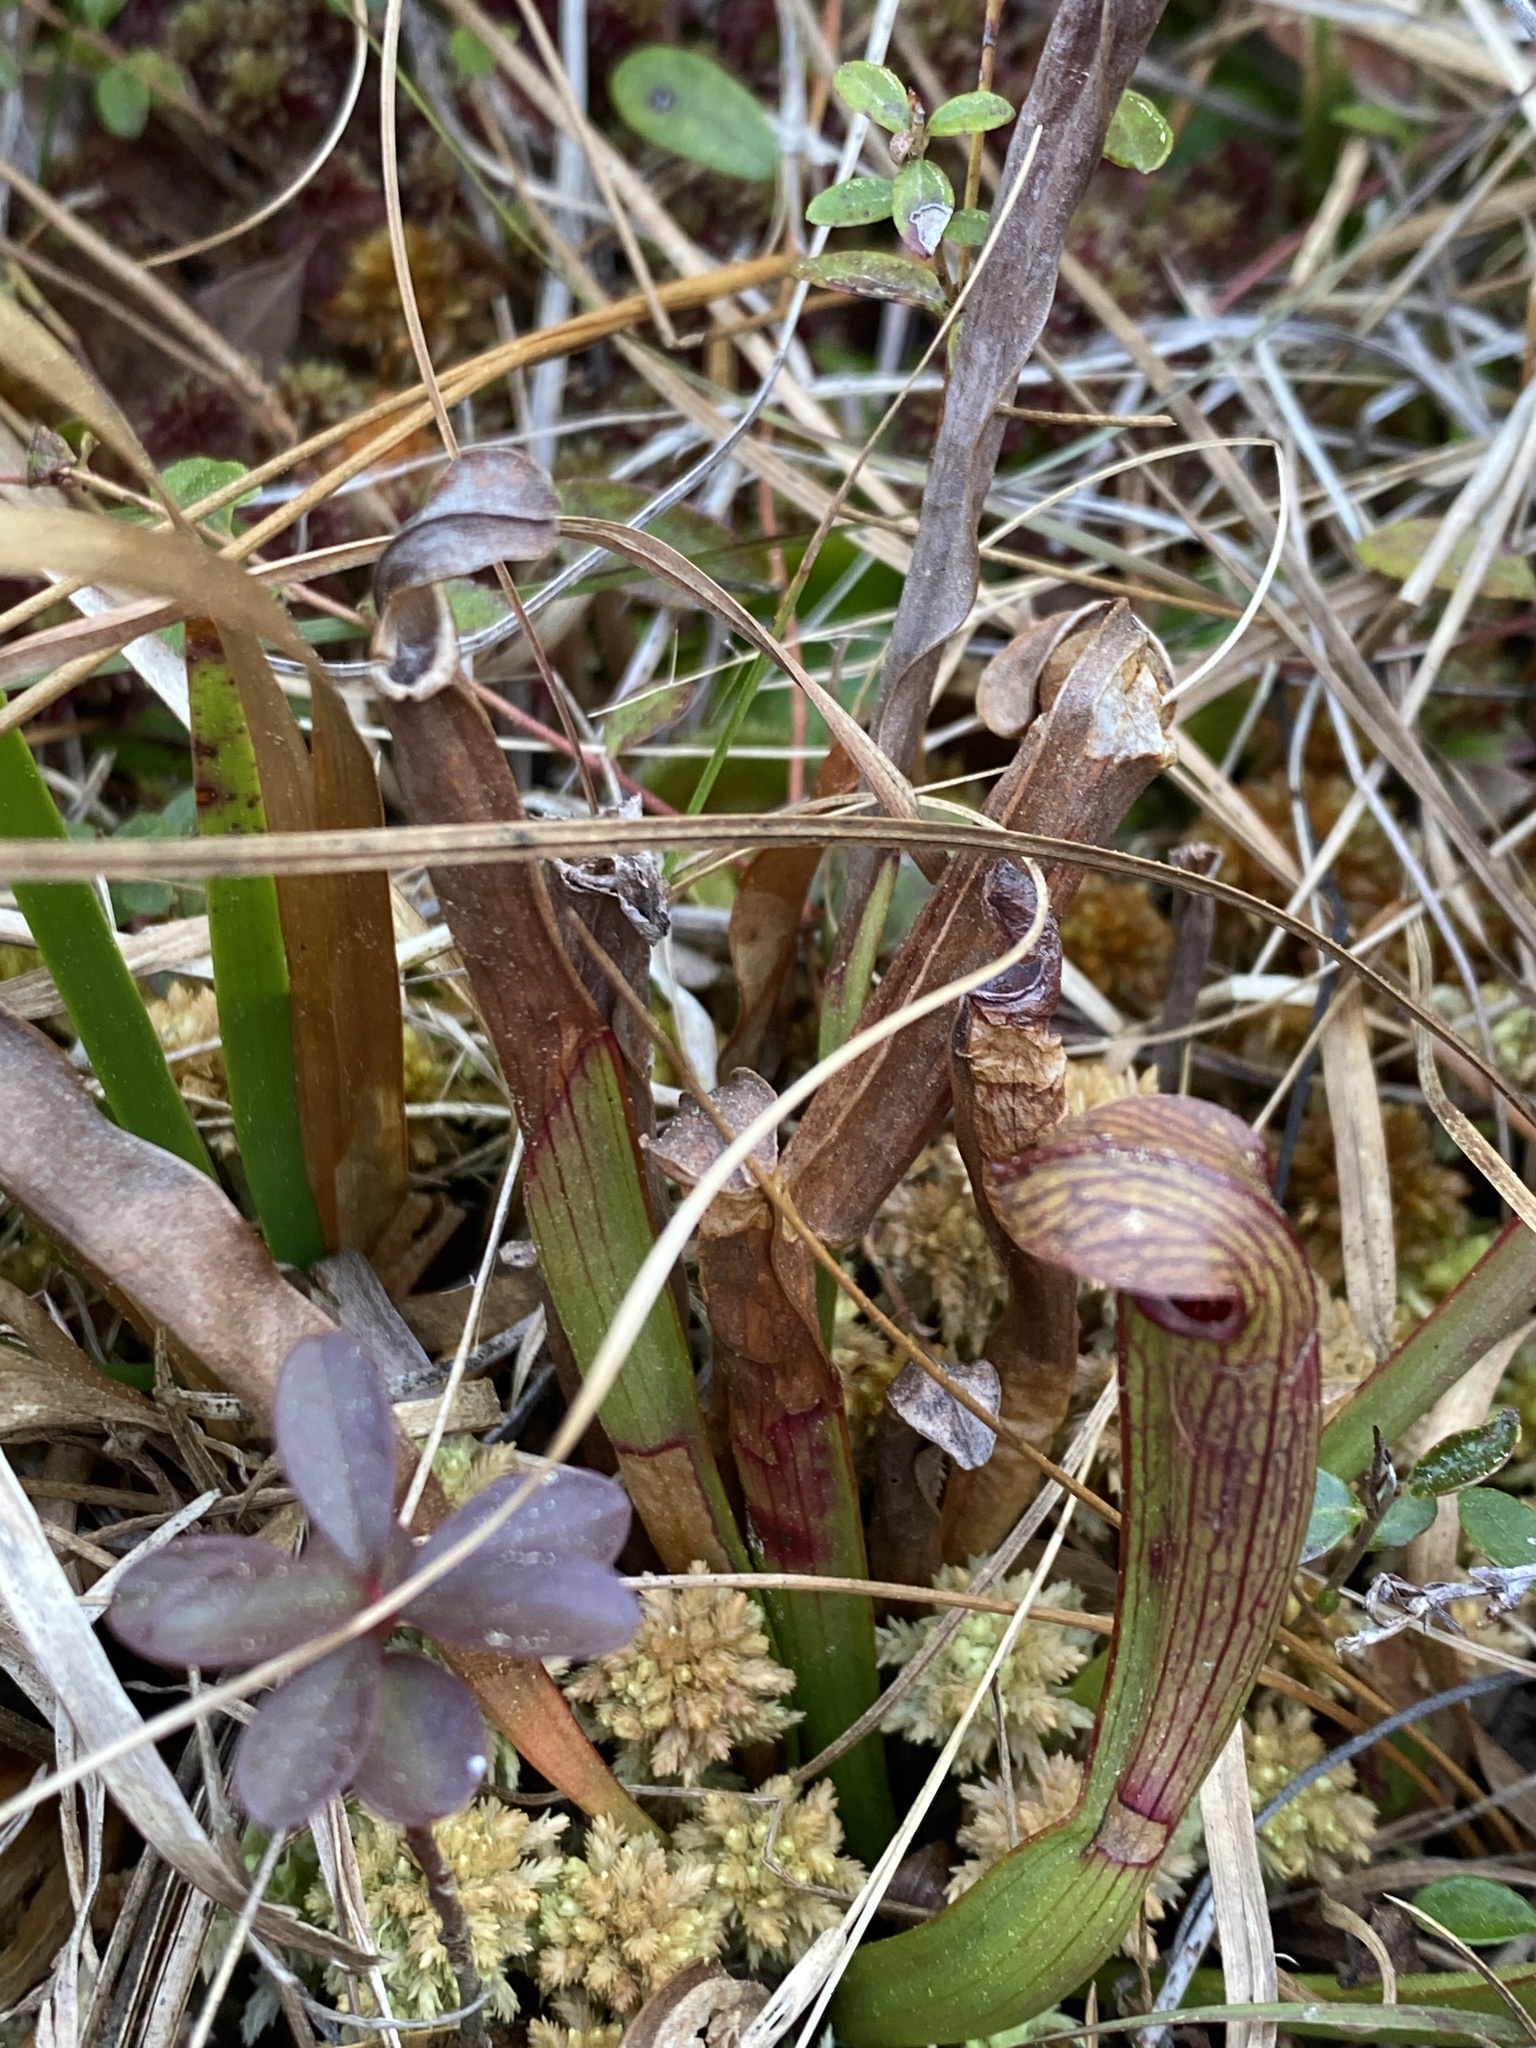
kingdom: Plantae
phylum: Tracheophyta
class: Magnoliopsida
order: Ericales
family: Sarraceniaceae
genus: Sarracenia
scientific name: Sarracenia rubra
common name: Sweet pitcherplant
